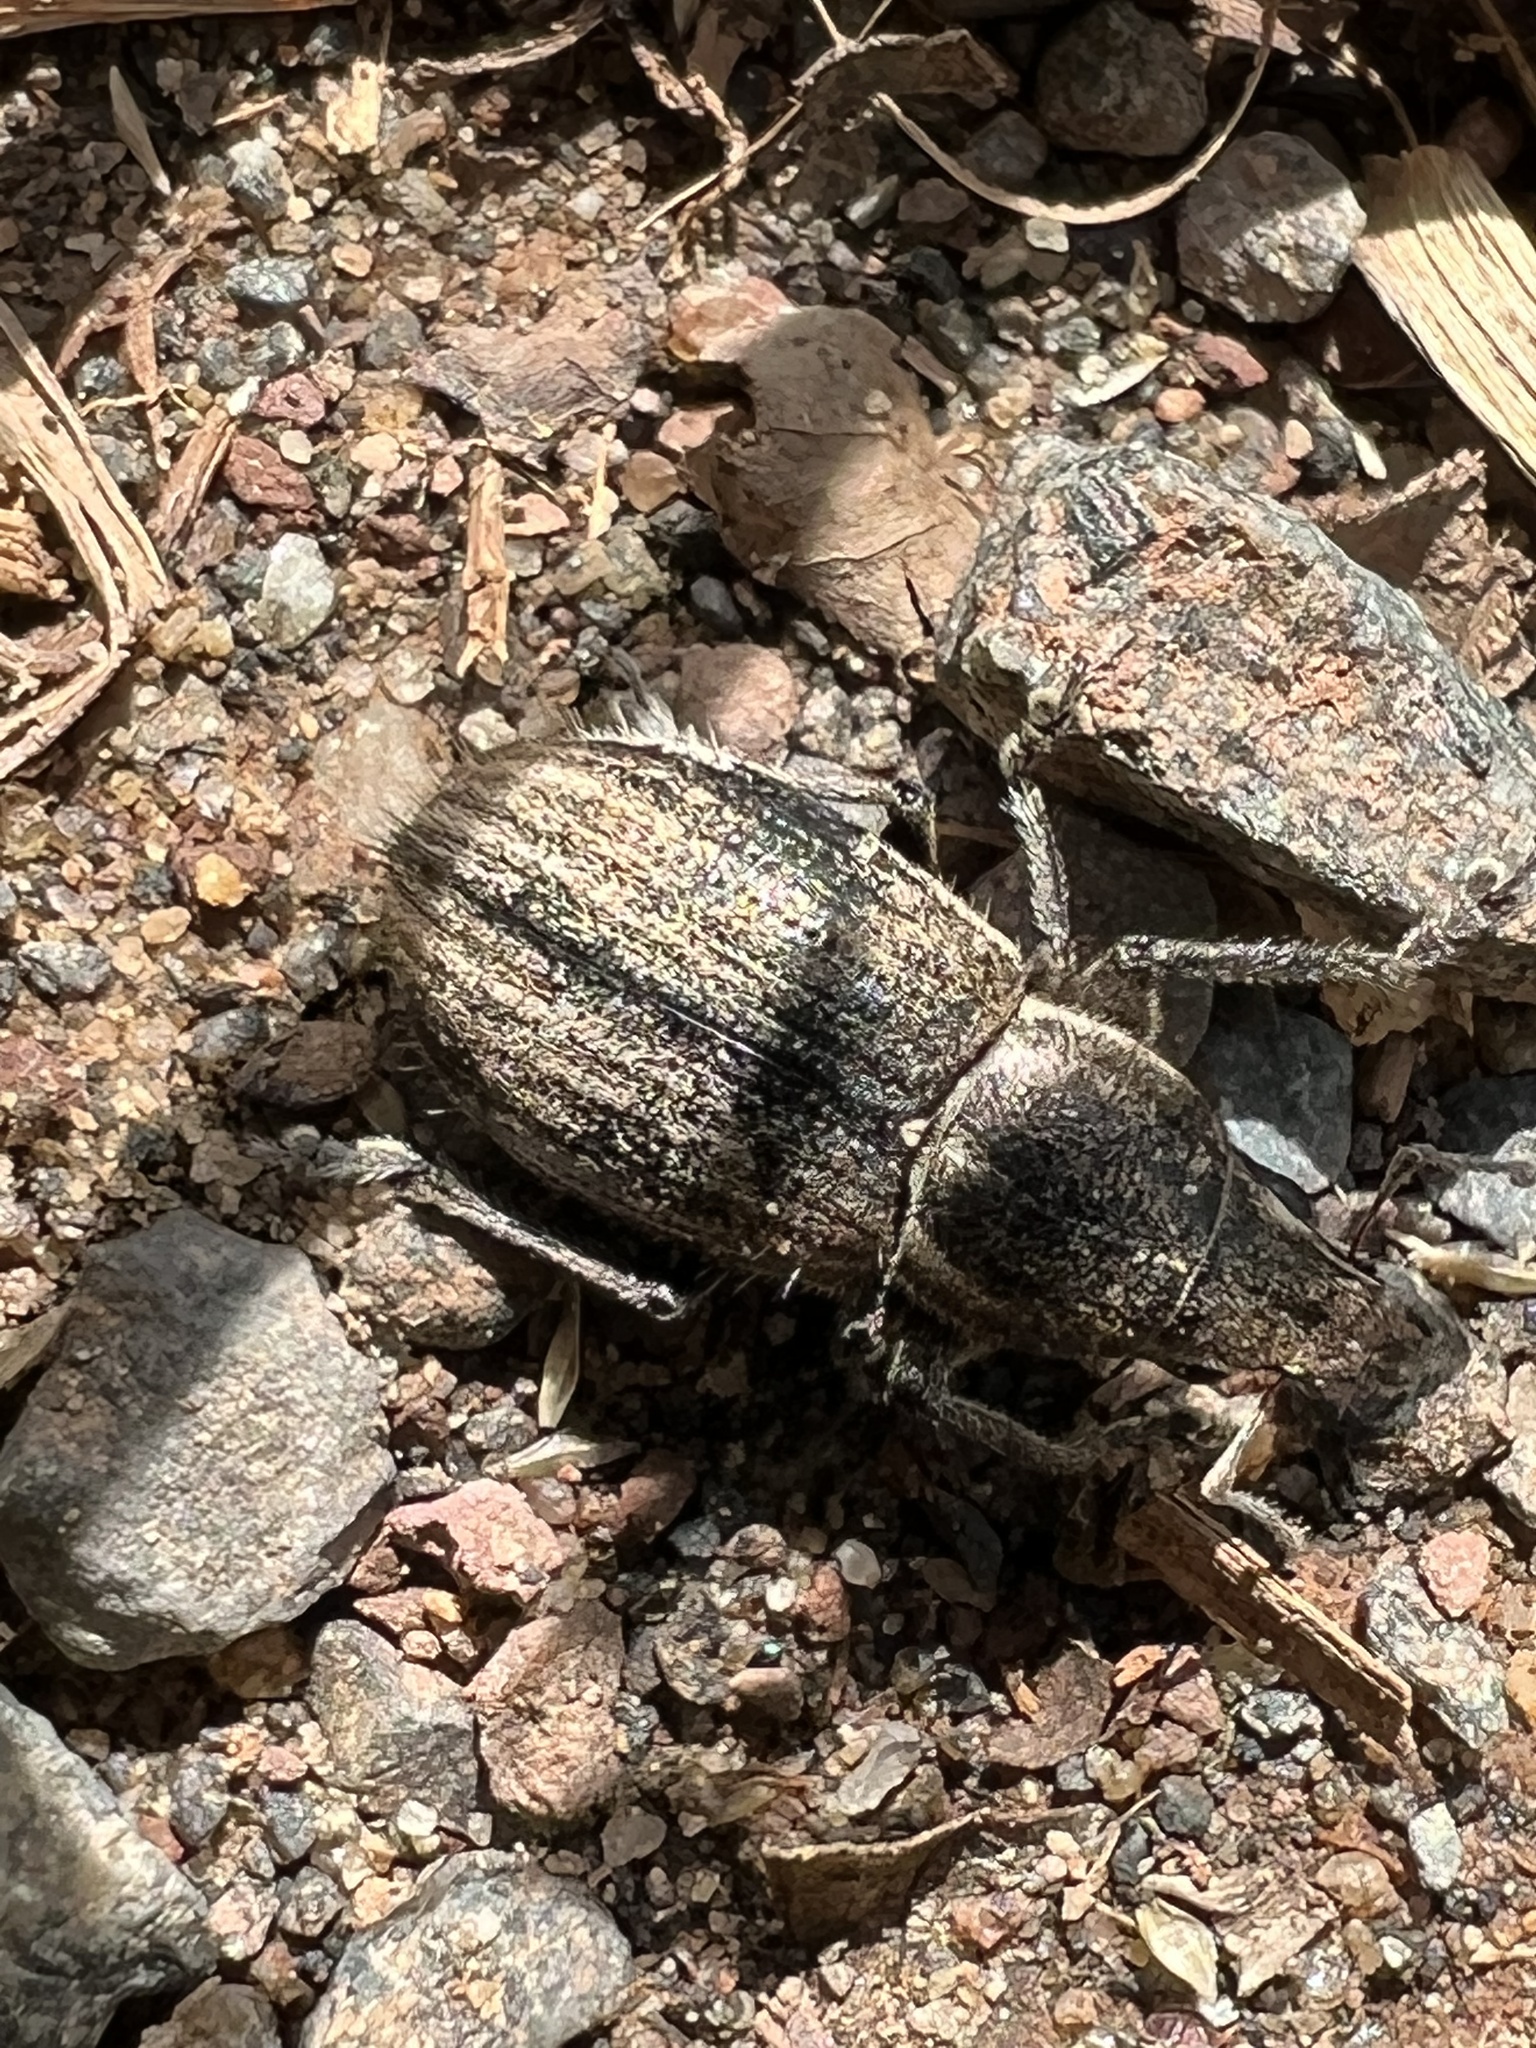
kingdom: Animalia
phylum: Arthropoda
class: Insecta
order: Coleoptera
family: Curculionidae
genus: Naupactus
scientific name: Naupactus leucoloma
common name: Whitefringed beetle
